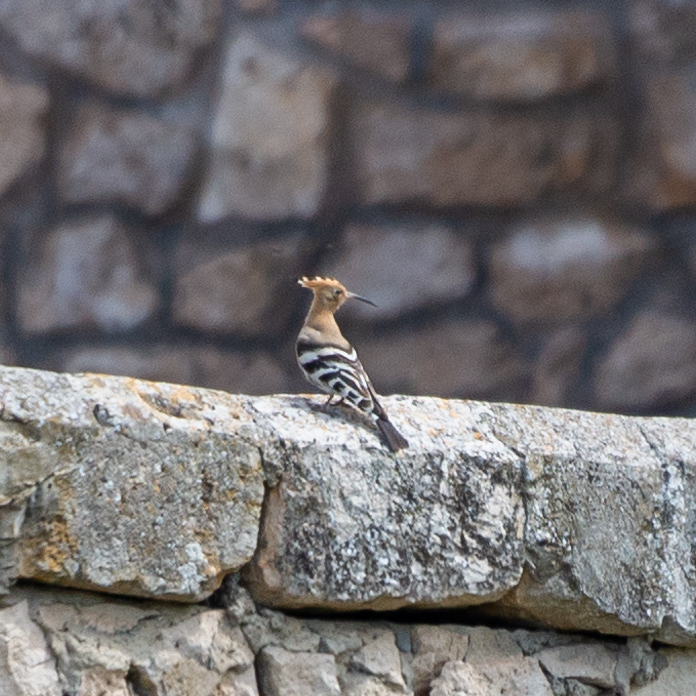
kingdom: Animalia
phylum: Chordata
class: Aves
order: Bucerotiformes
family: Upupidae
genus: Upupa
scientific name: Upupa epops
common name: Eurasian hoopoe
